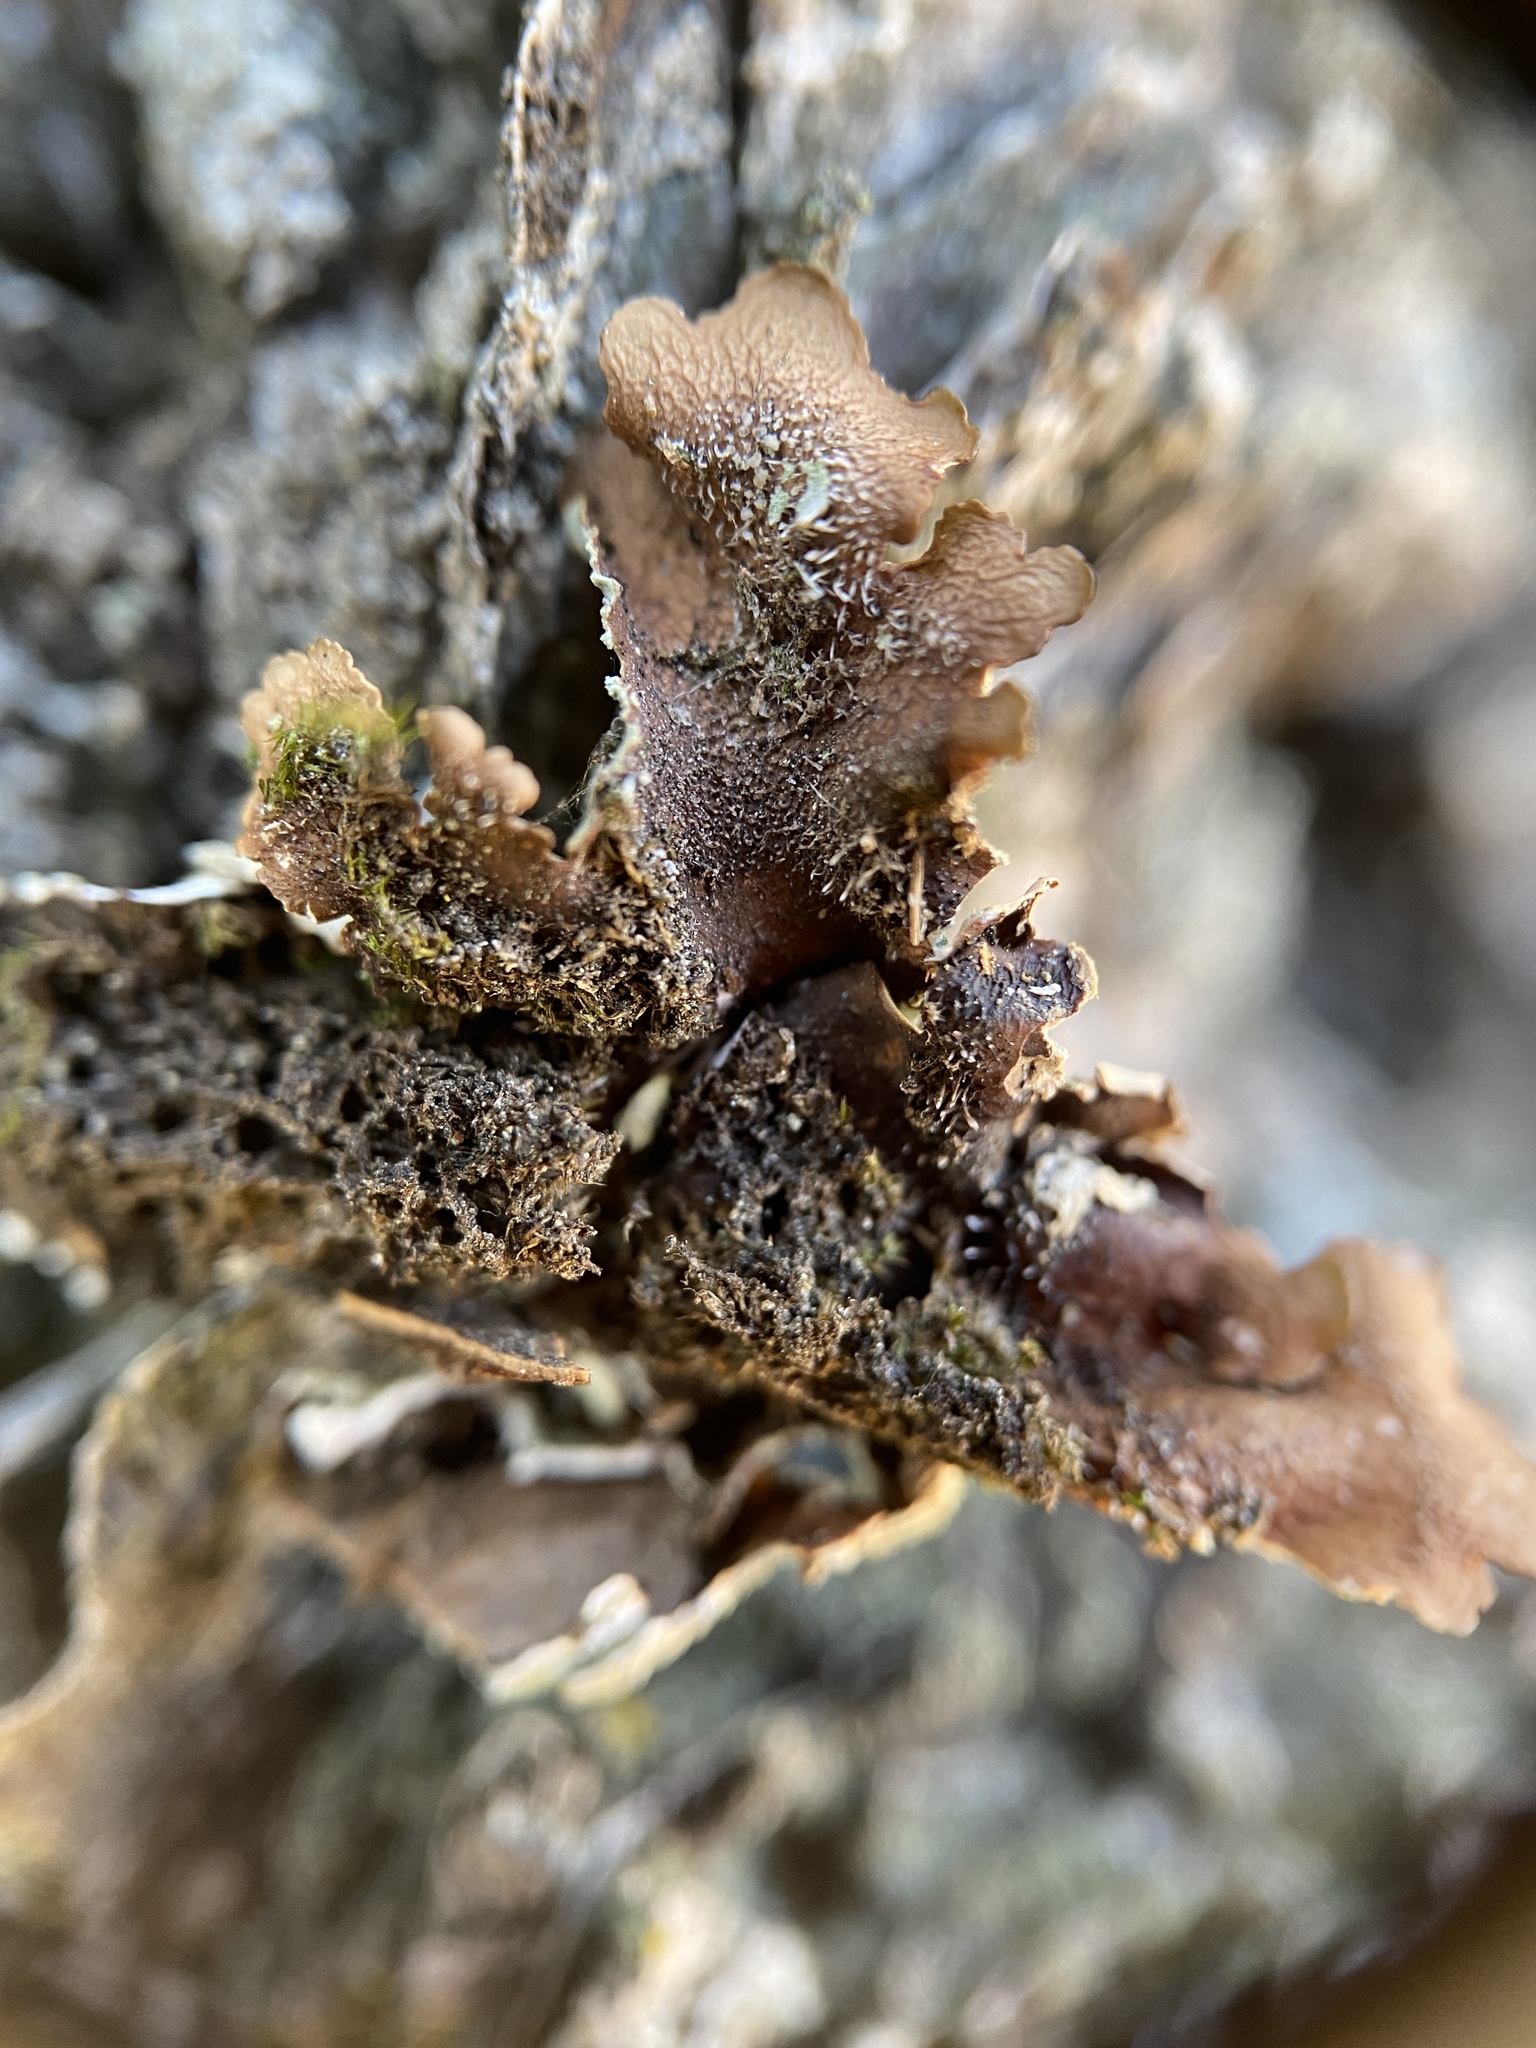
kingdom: Fungi
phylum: Ascomycota
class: Lecanoromycetes
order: Lecanorales
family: Parmeliaceae
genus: Canoparmelia
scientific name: Canoparmelia texana
